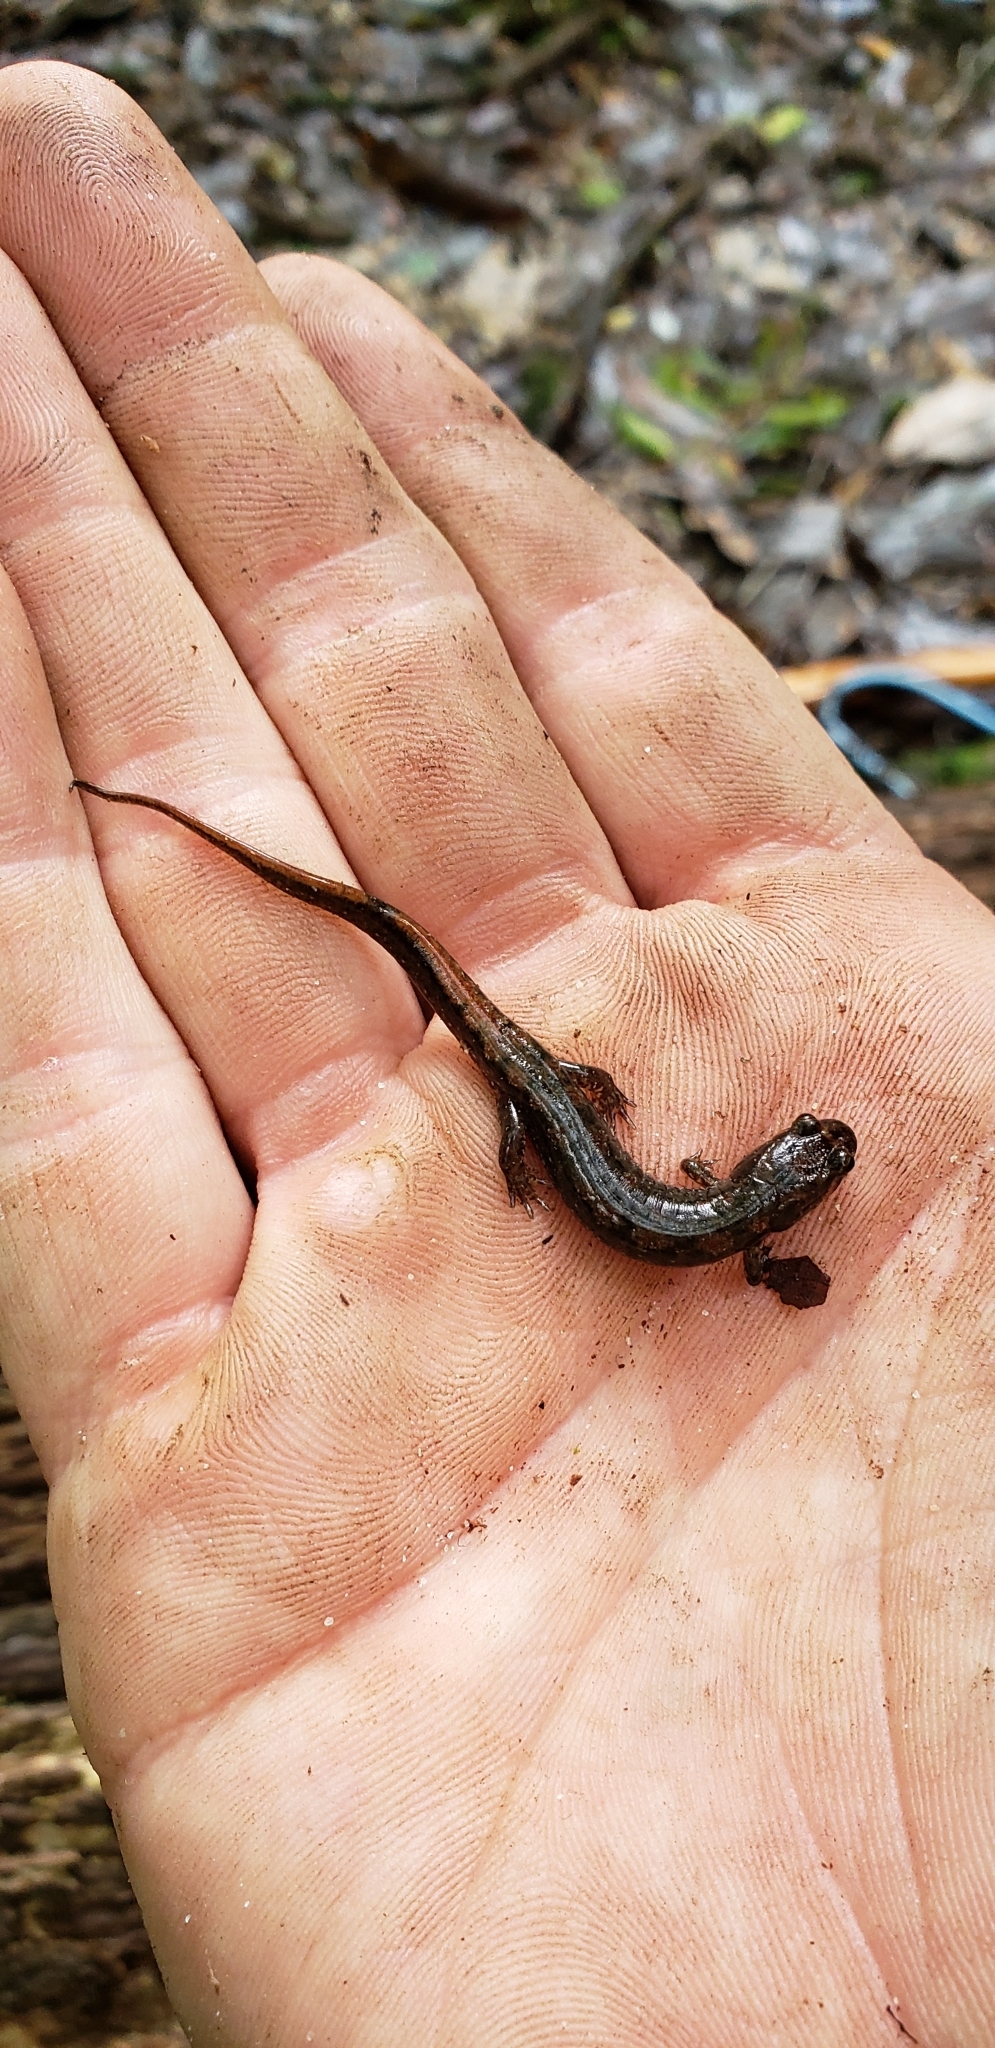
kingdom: Animalia
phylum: Chordata
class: Amphibia
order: Caudata
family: Plethodontidae
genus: Desmognathus
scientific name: Desmognathus conanti
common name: Spotted dusky salamander
